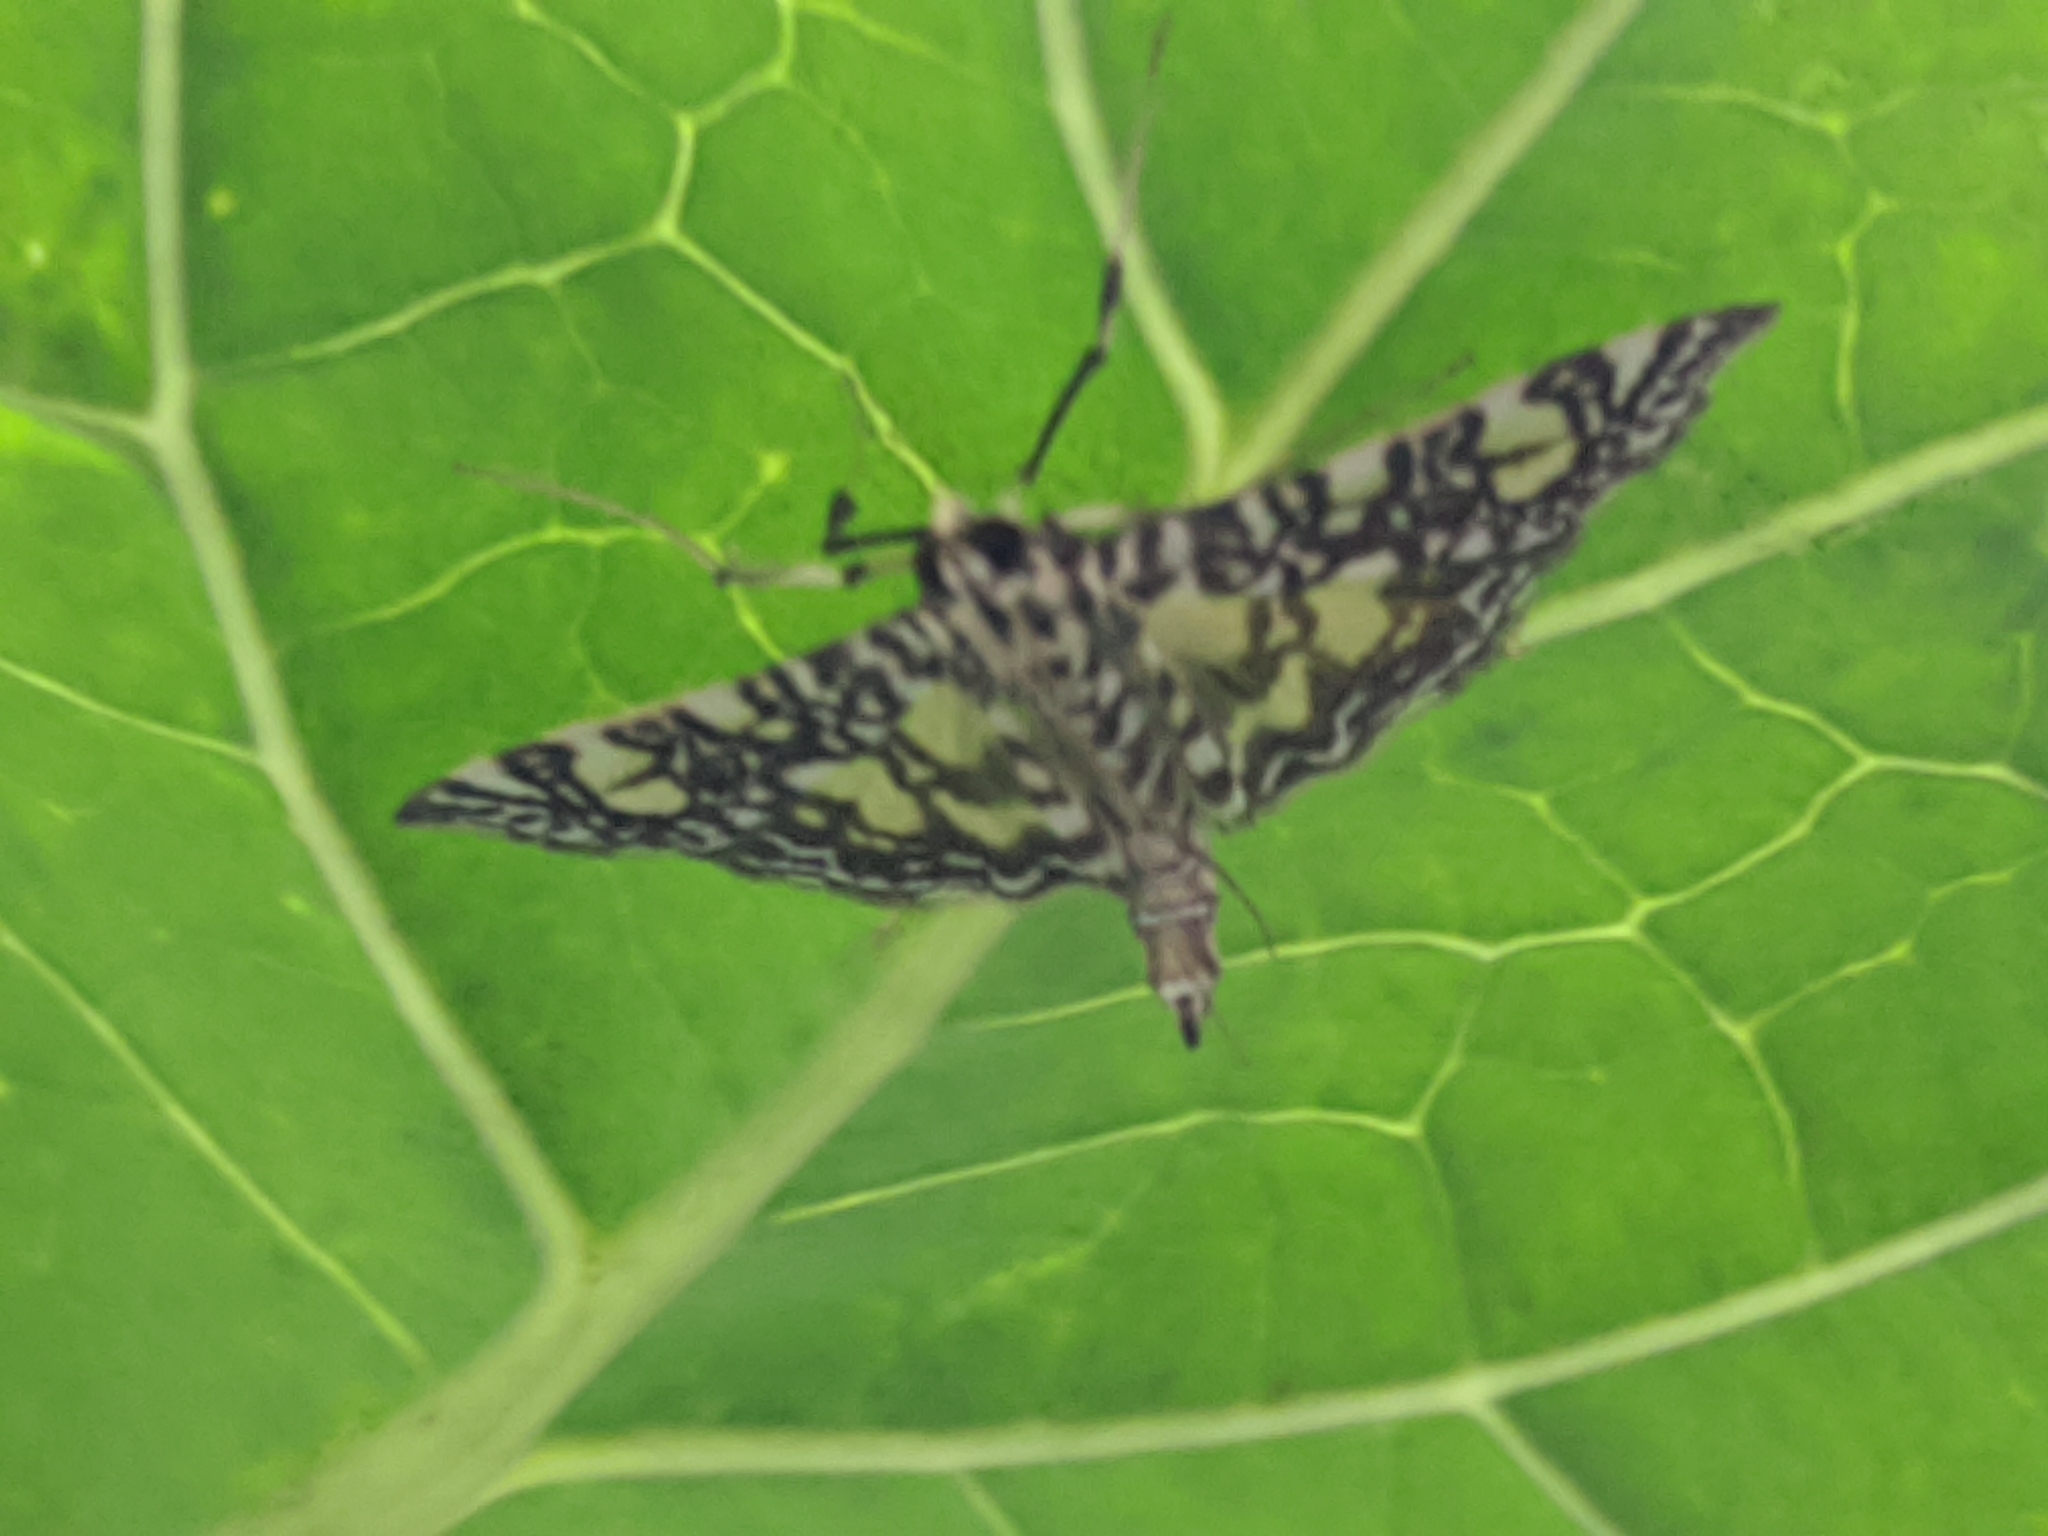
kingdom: Animalia
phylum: Arthropoda
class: Insecta
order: Lepidoptera
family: Crambidae
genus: Glyphodes
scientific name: Glyphodes onychinalis
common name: Swan plant moth
